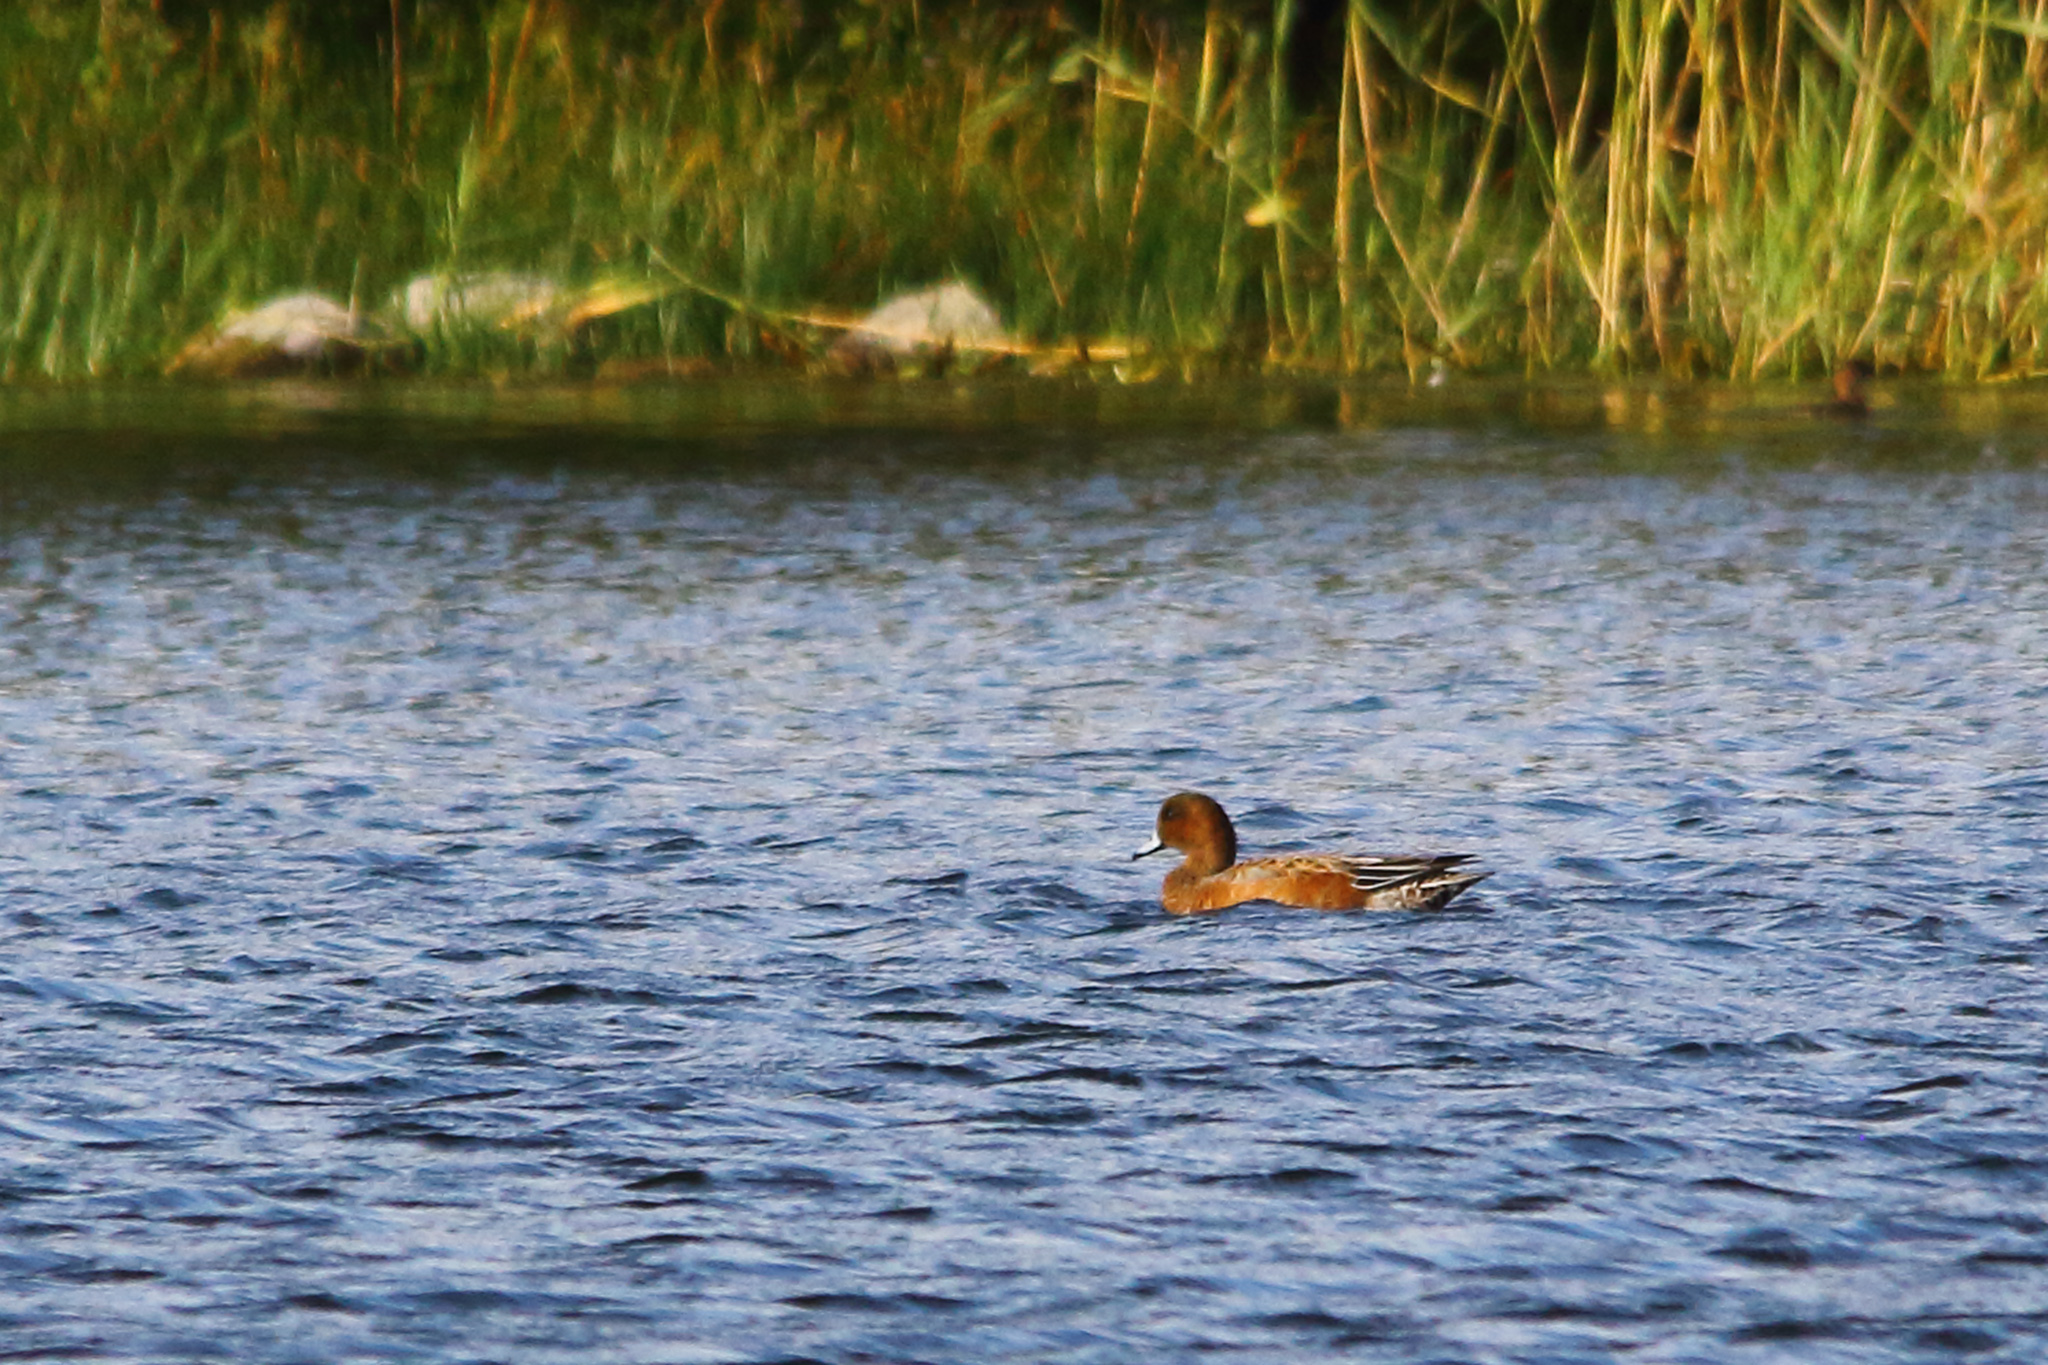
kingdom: Animalia
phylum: Chordata
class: Aves
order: Anseriformes
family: Anatidae
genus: Mareca
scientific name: Mareca penelope
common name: Eurasian wigeon
